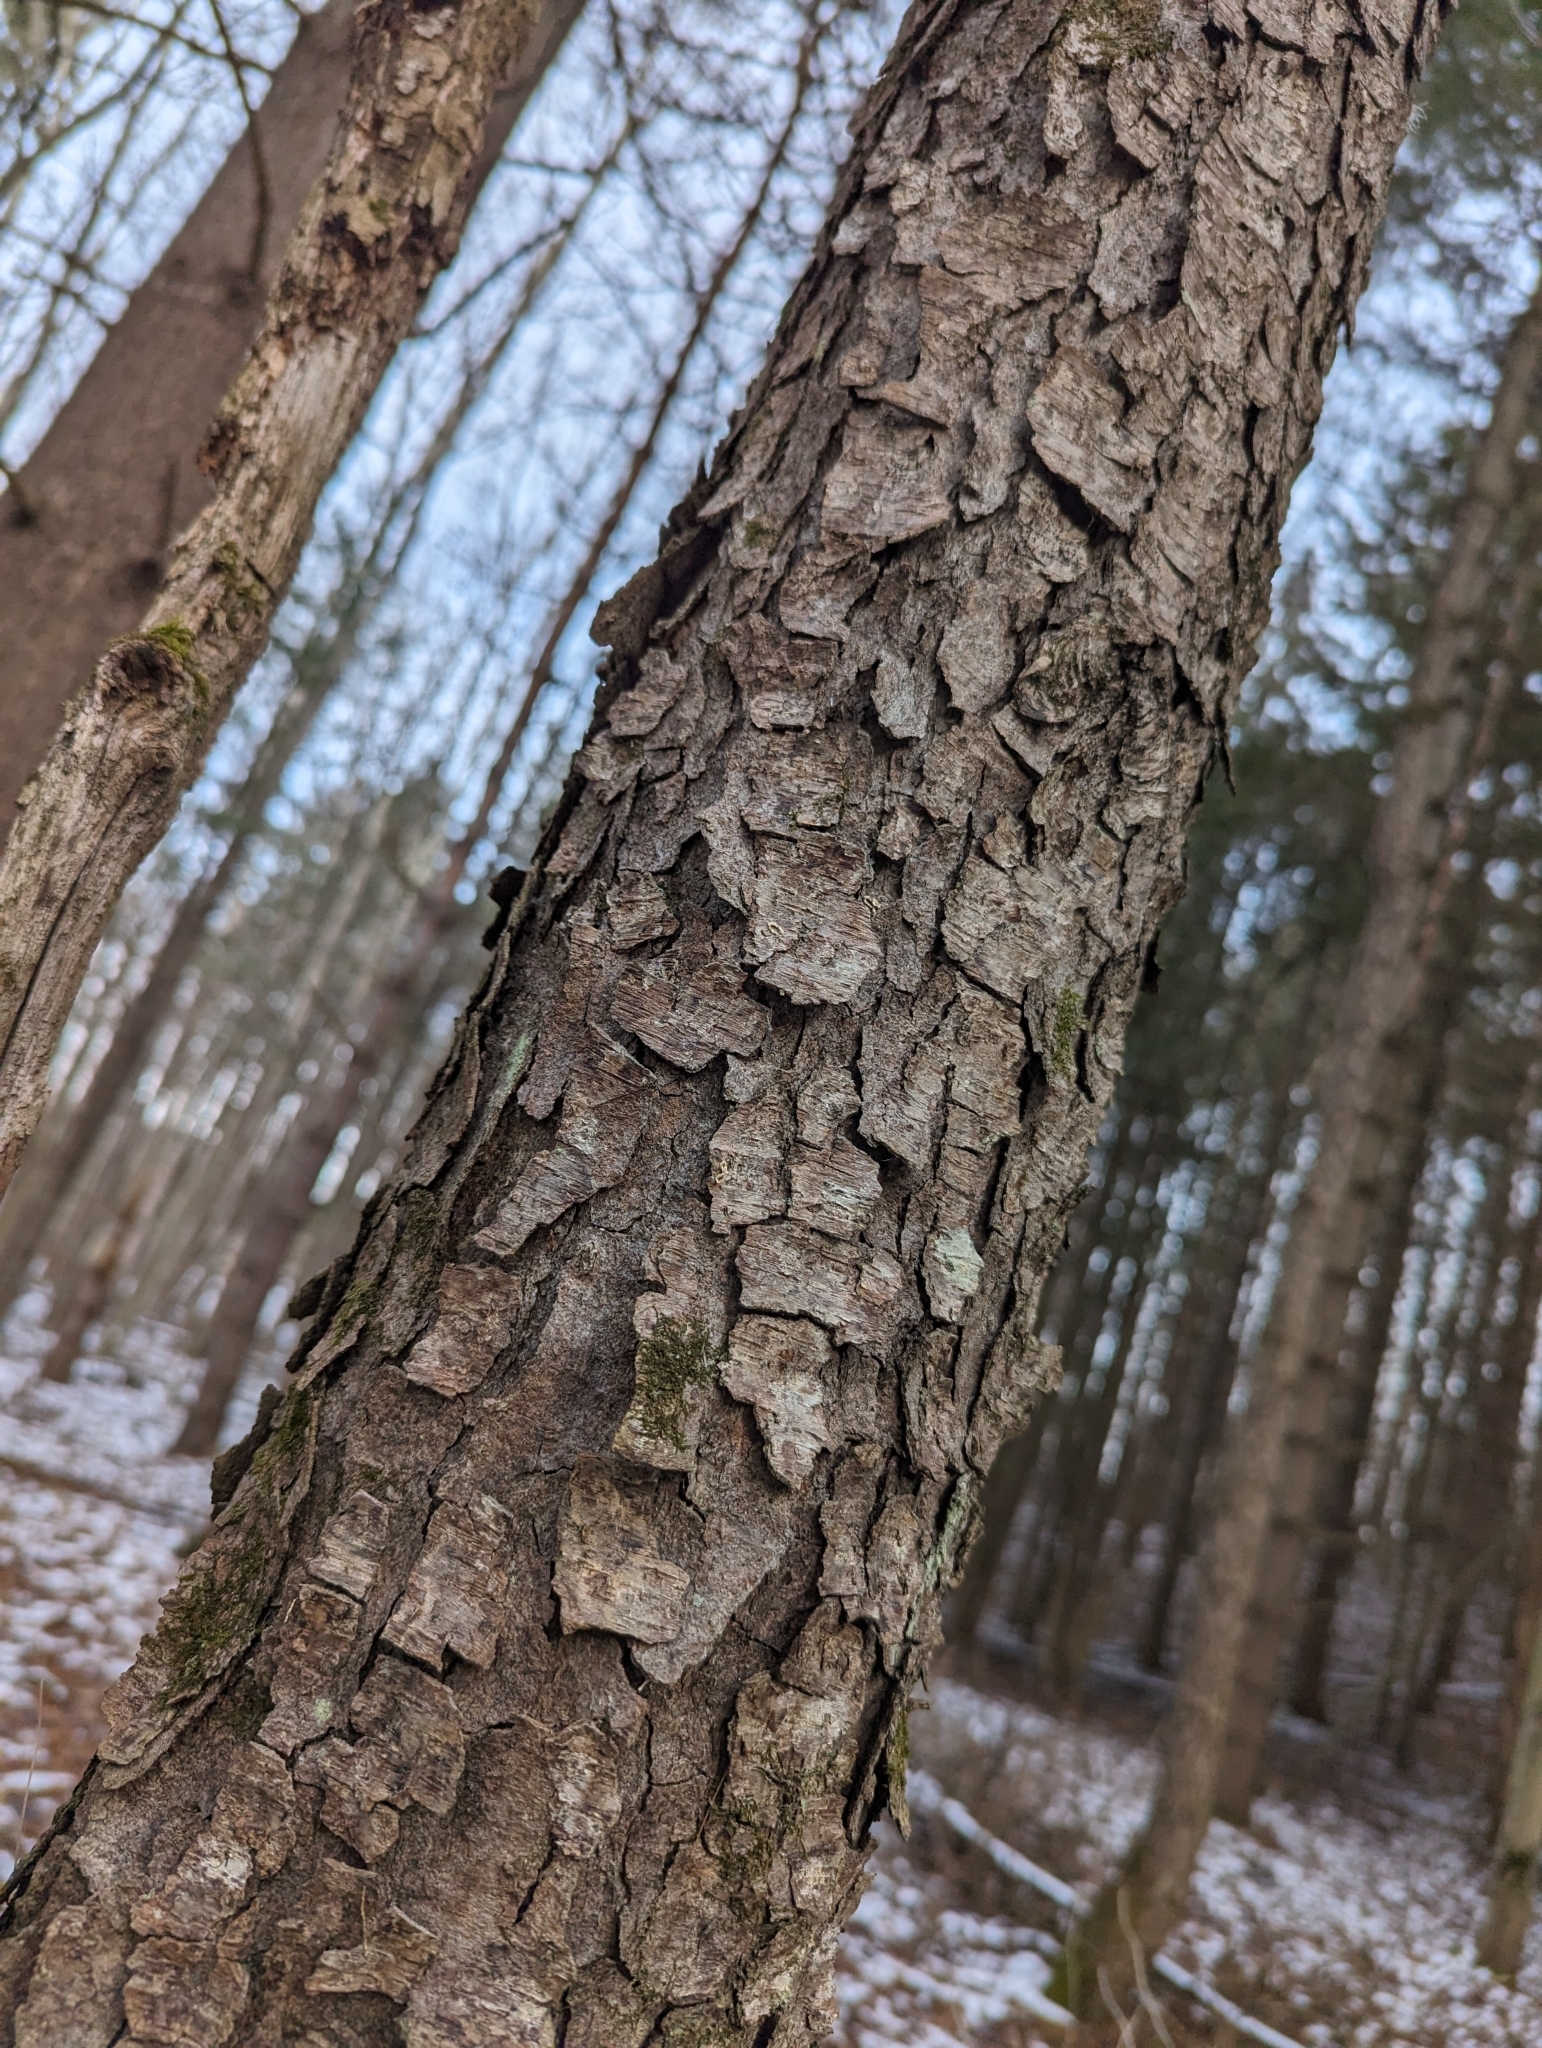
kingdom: Plantae
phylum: Tracheophyta
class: Magnoliopsida
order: Rosales
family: Rosaceae
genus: Prunus
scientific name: Prunus serotina
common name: Black cherry
